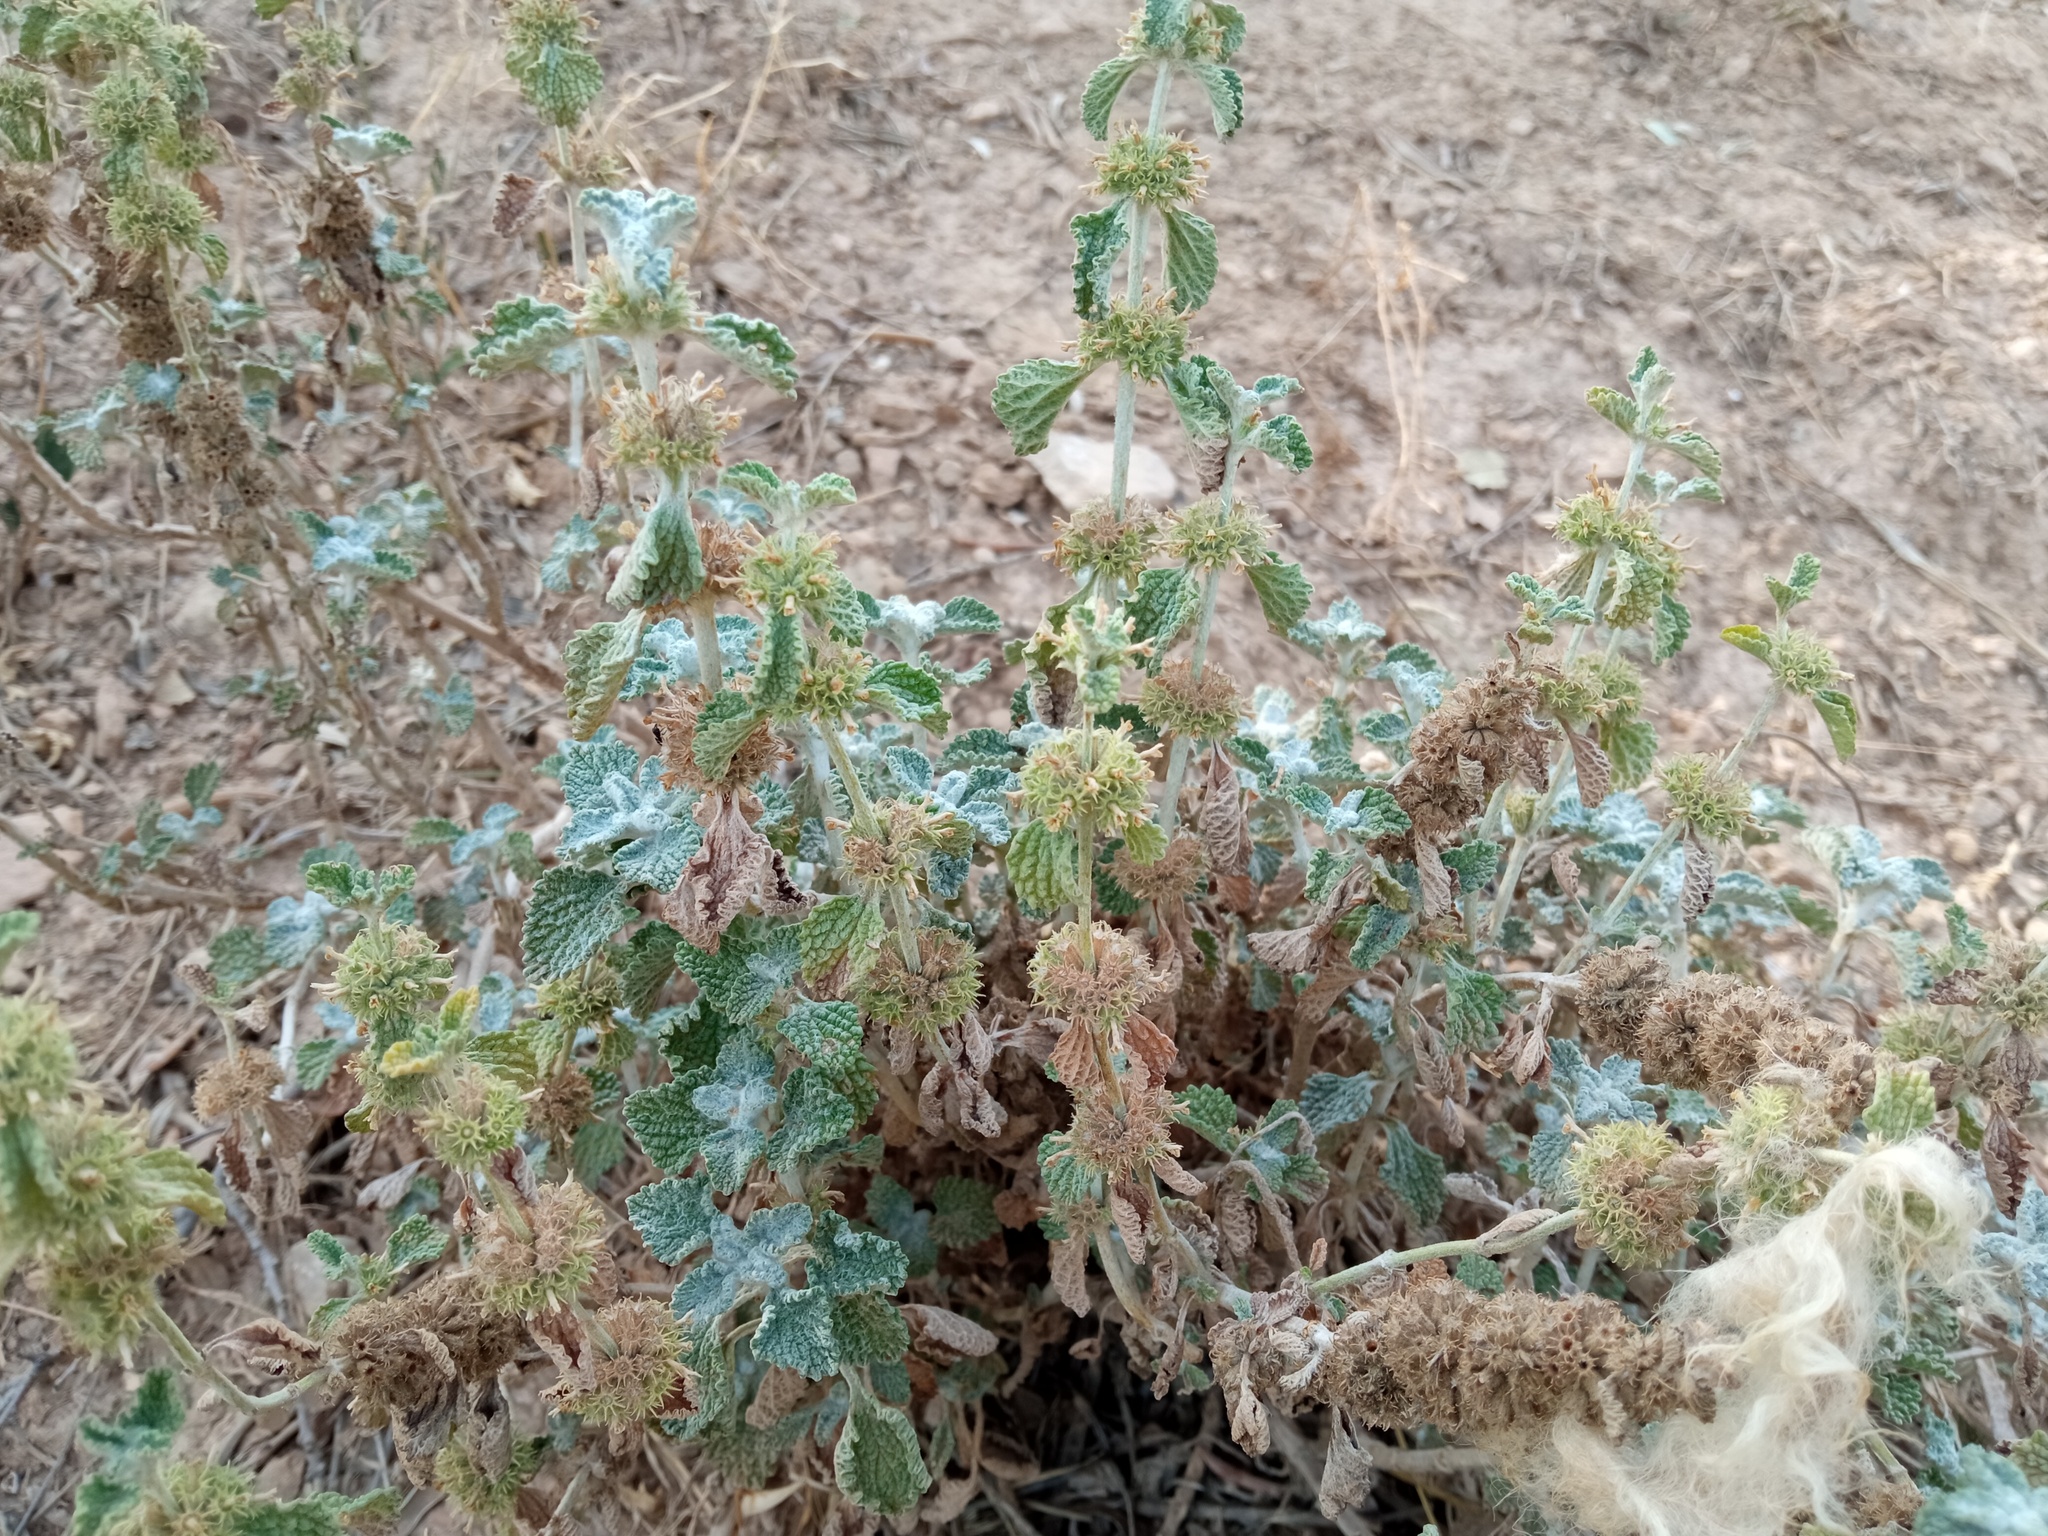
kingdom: Plantae
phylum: Tracheophyta
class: Magnoliopsida
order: Lamiales
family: Lamiaceae
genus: Marrubium
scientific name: Marrubium vulgare
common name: Horehound
